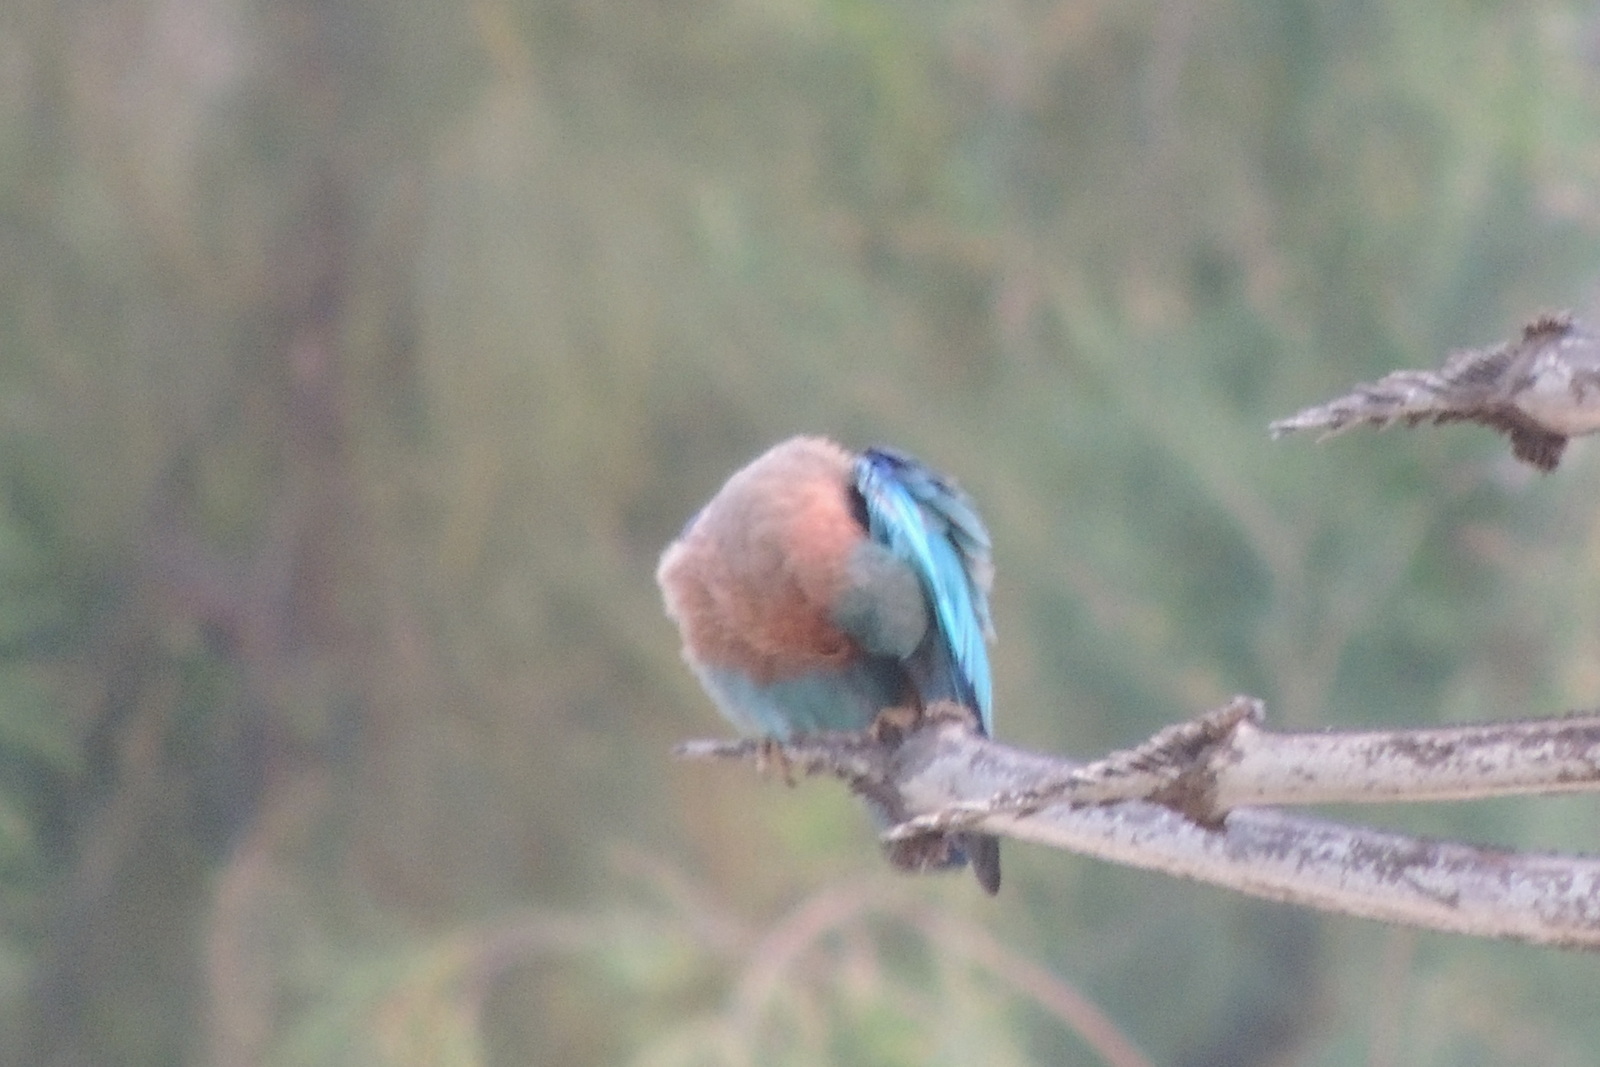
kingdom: Animalia
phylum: Chordata
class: Aves
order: Coraciiformes
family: Coraciidae
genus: Coracias
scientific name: Coracias benghalensis
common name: Indian roller
